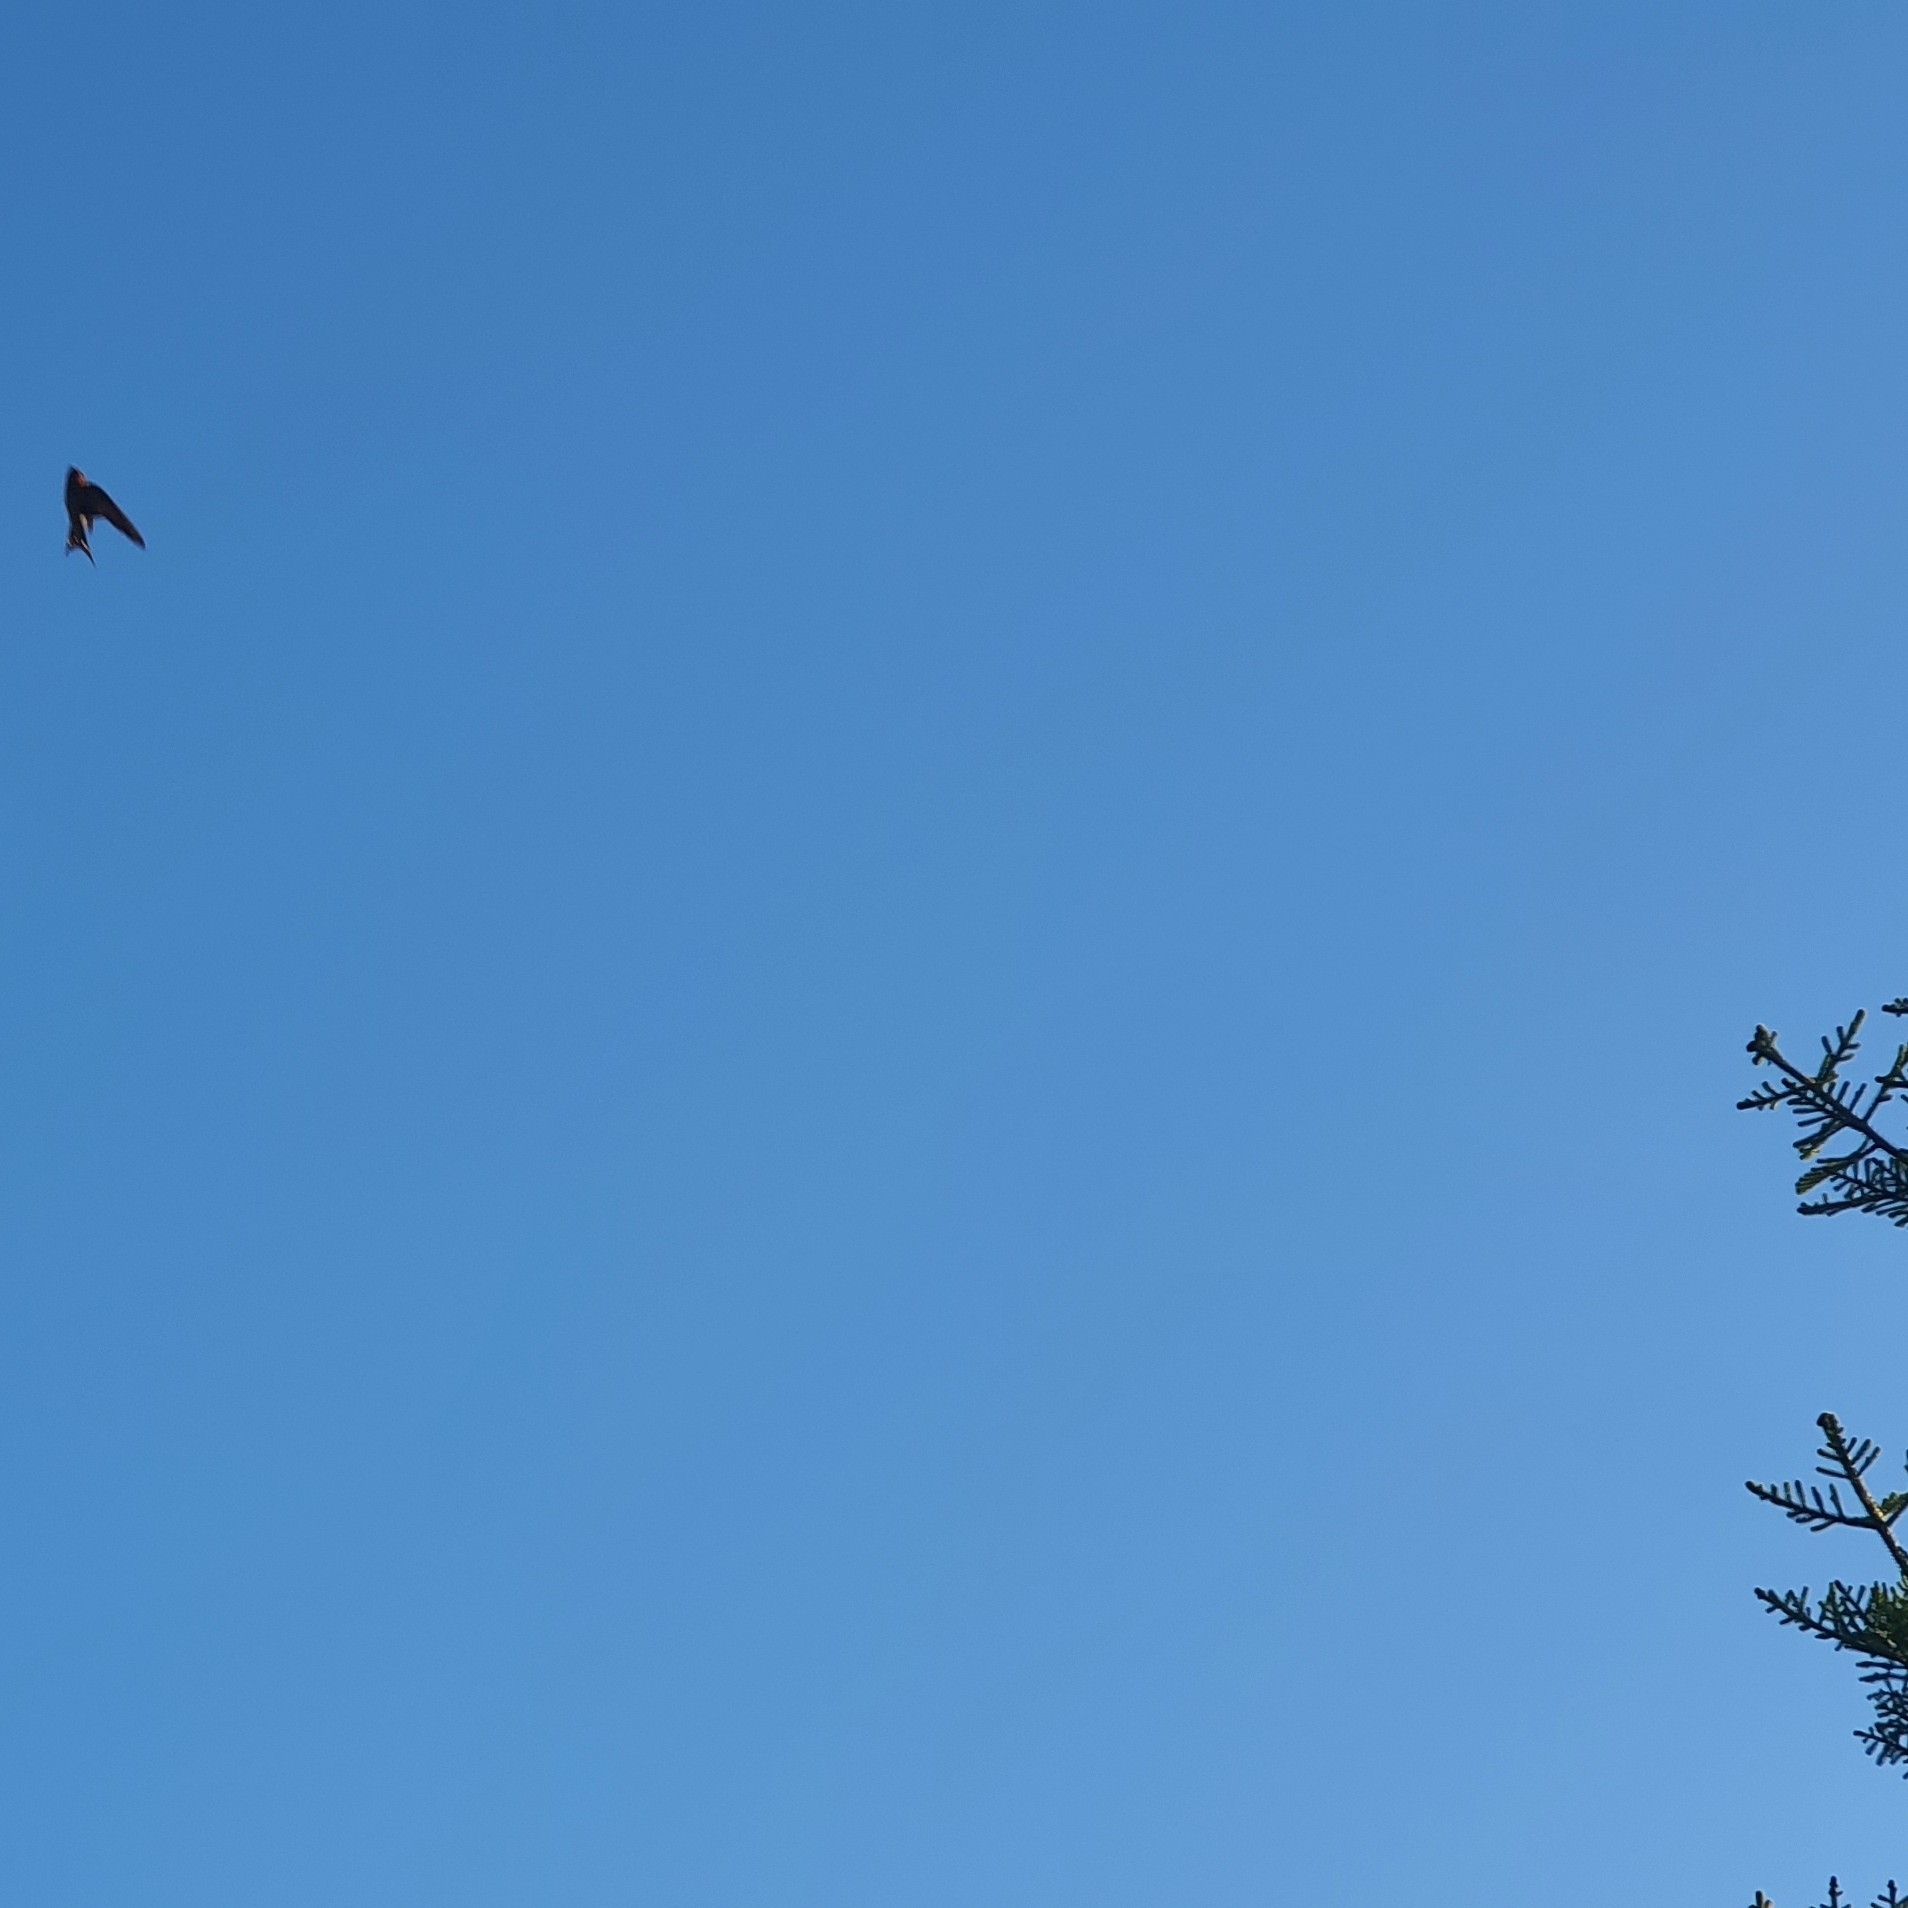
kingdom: Animalia
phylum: Chordata
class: Aves
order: Passeriformes
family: Hirundinidae
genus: Hirundo
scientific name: Hirundo neoxena
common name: Welcome swallow
